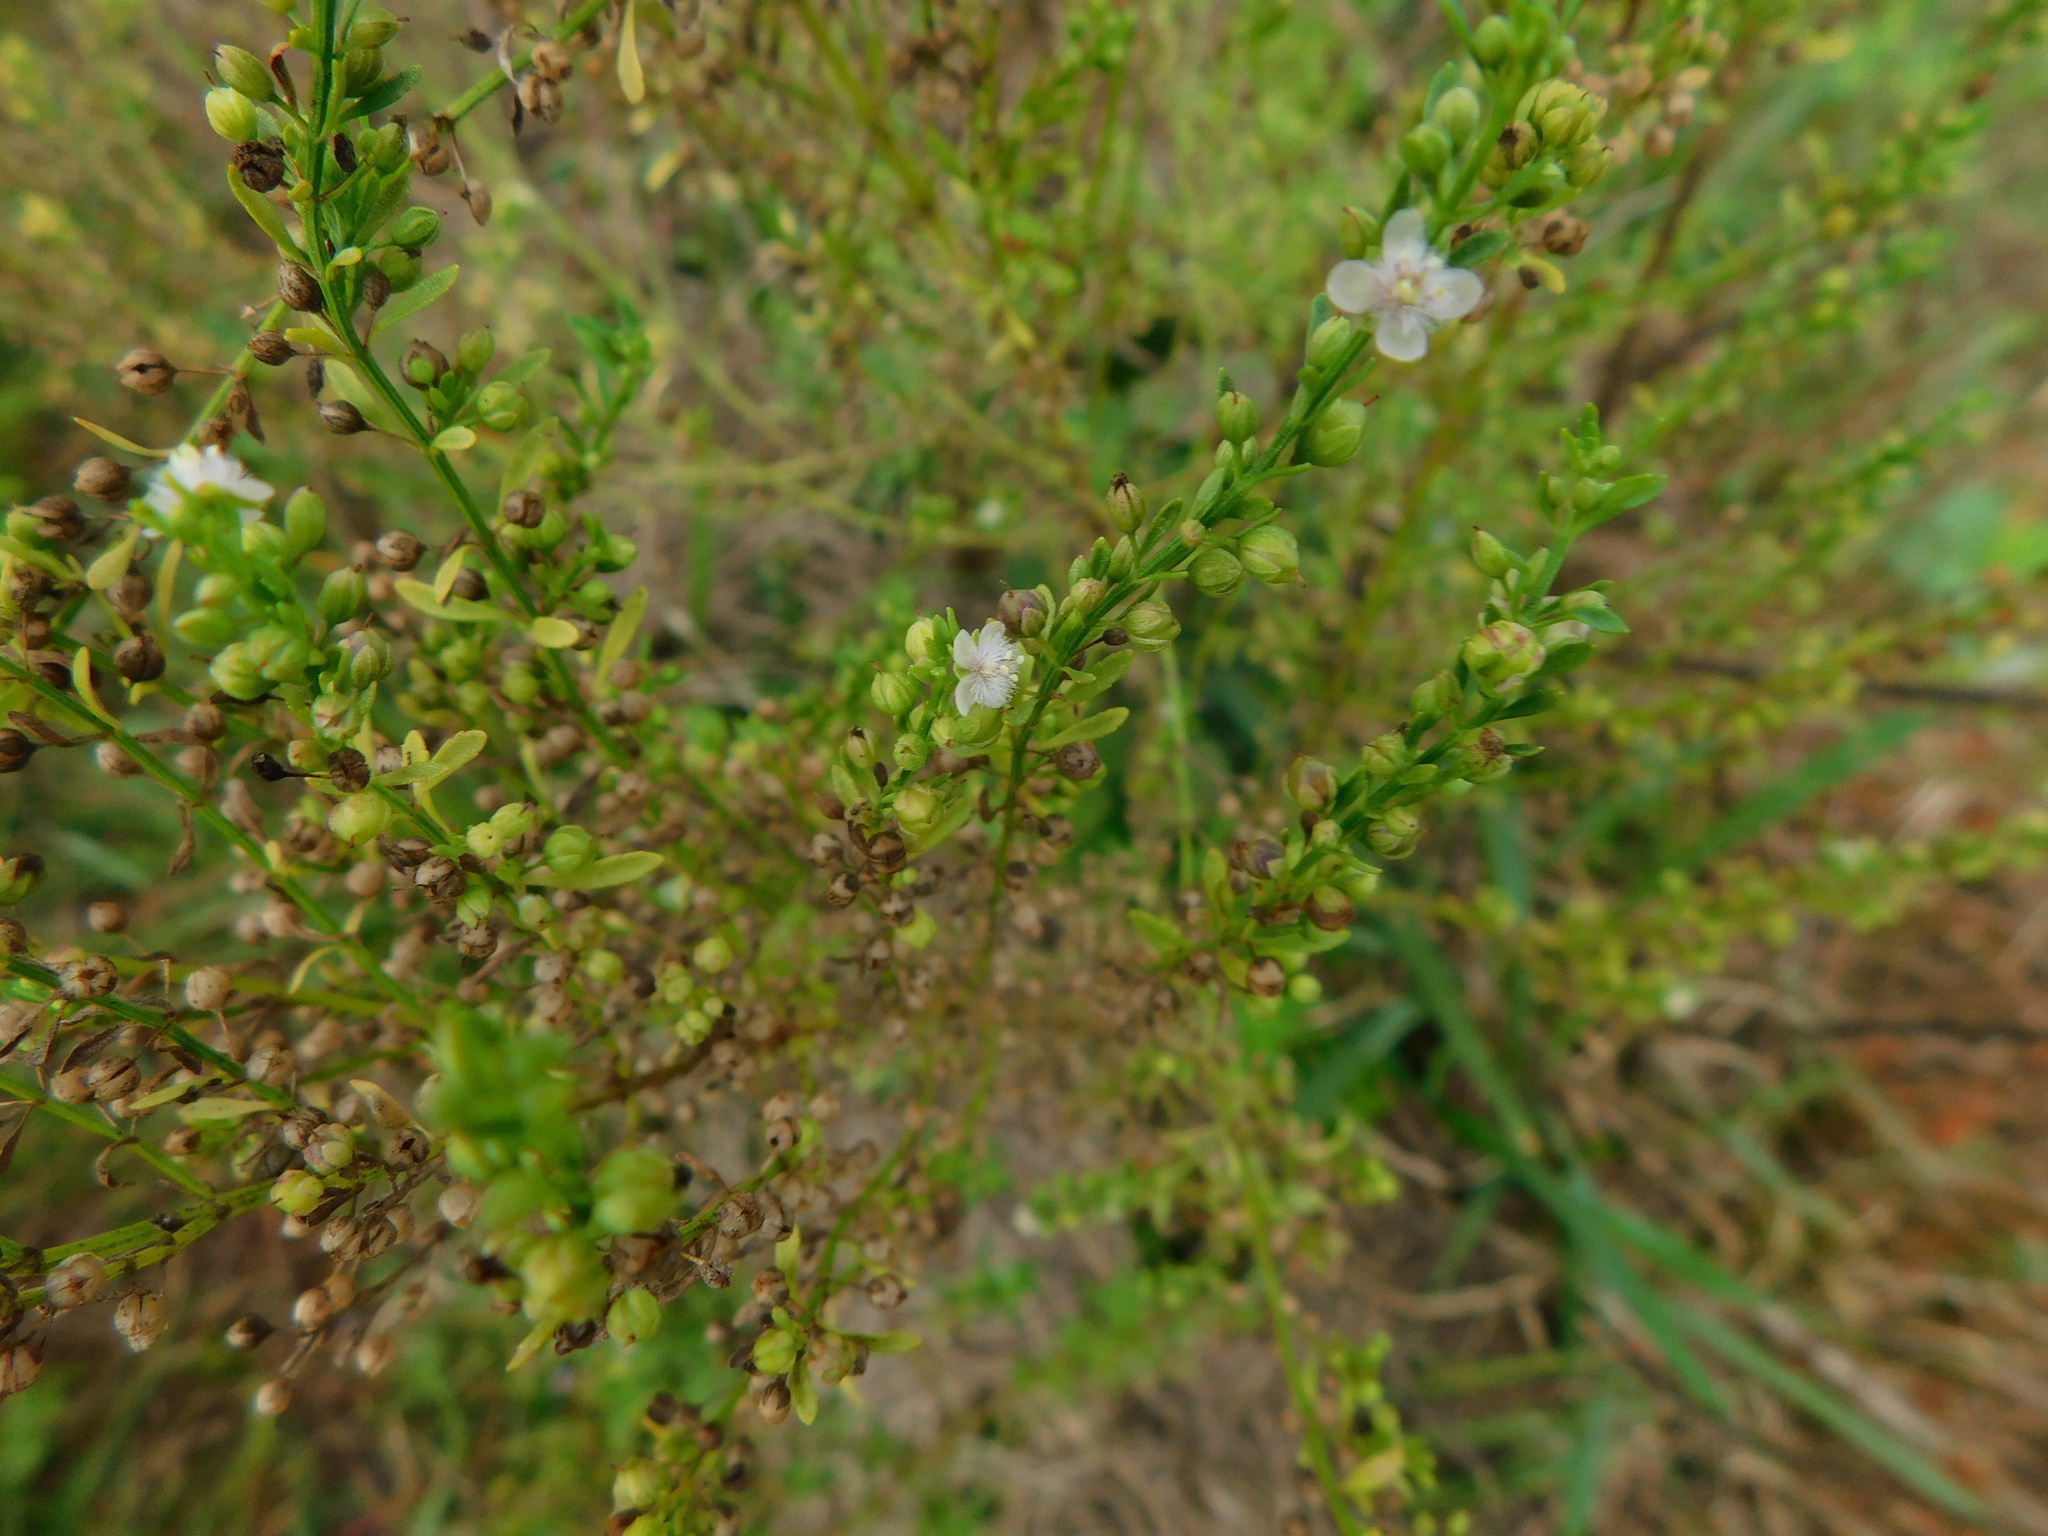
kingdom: Plantae
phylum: Tracheophyta
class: Magnoliopsida
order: Lamiales
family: Plantaginaceae
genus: Scoparia
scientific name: Scoparia dulcis
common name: Scoparia-weed
